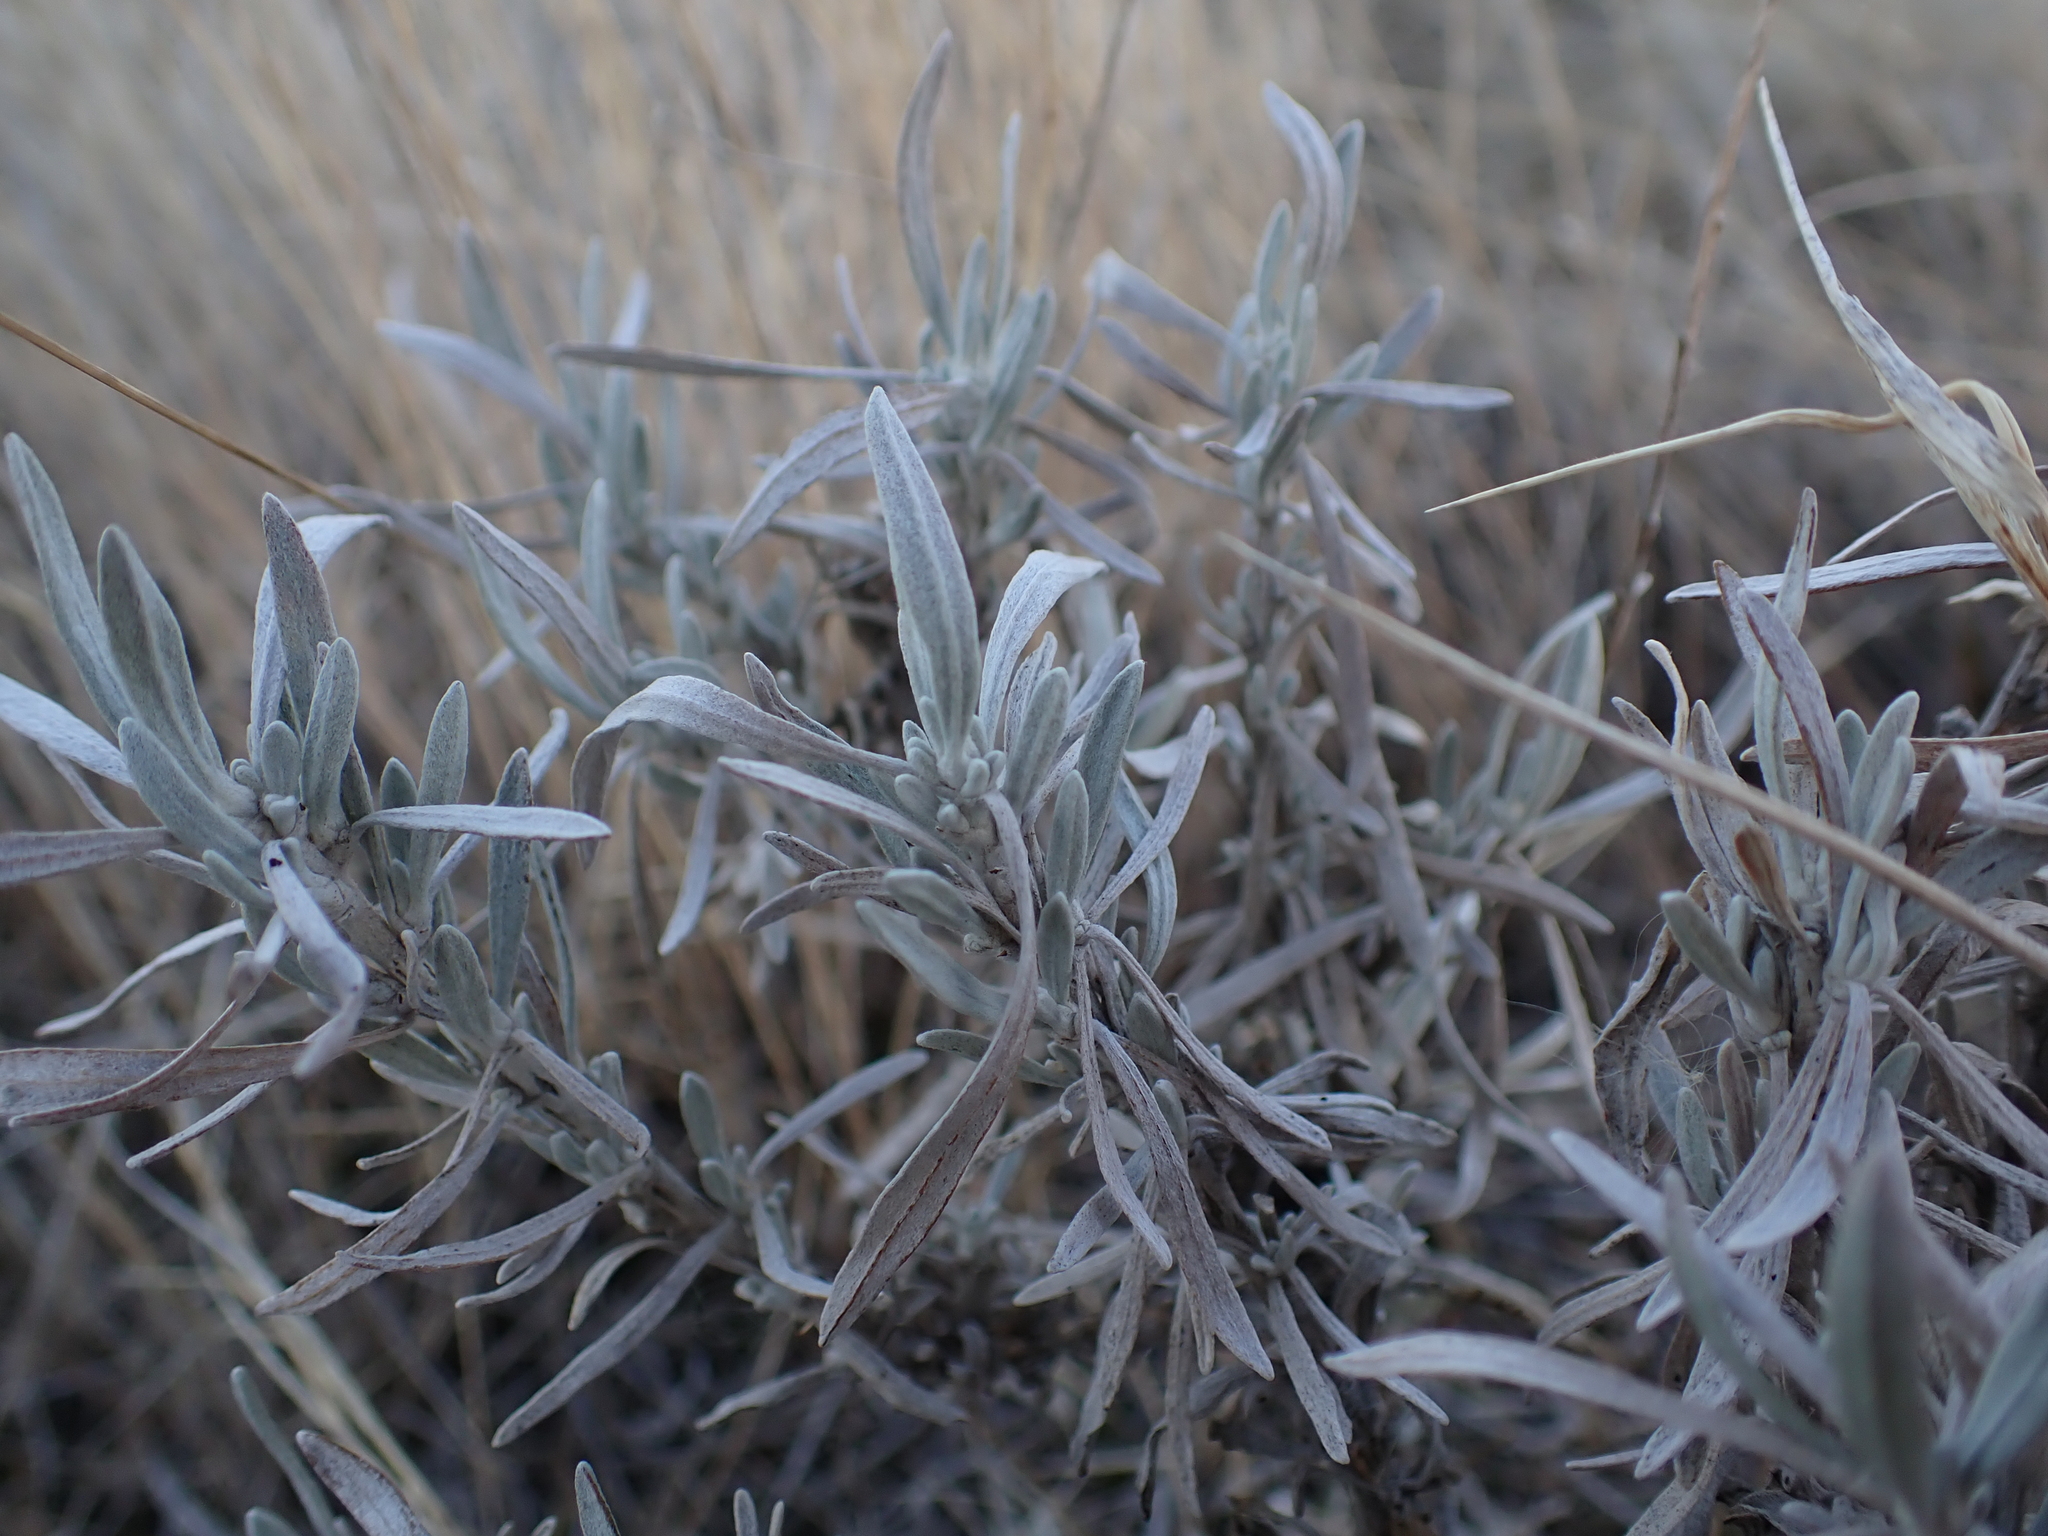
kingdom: Plantae
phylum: Tracheophyta
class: Magnoliopsida
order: Asterales
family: Asteraceae
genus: Artemisia
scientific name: Artemisia cana
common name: Silver sagebrush
